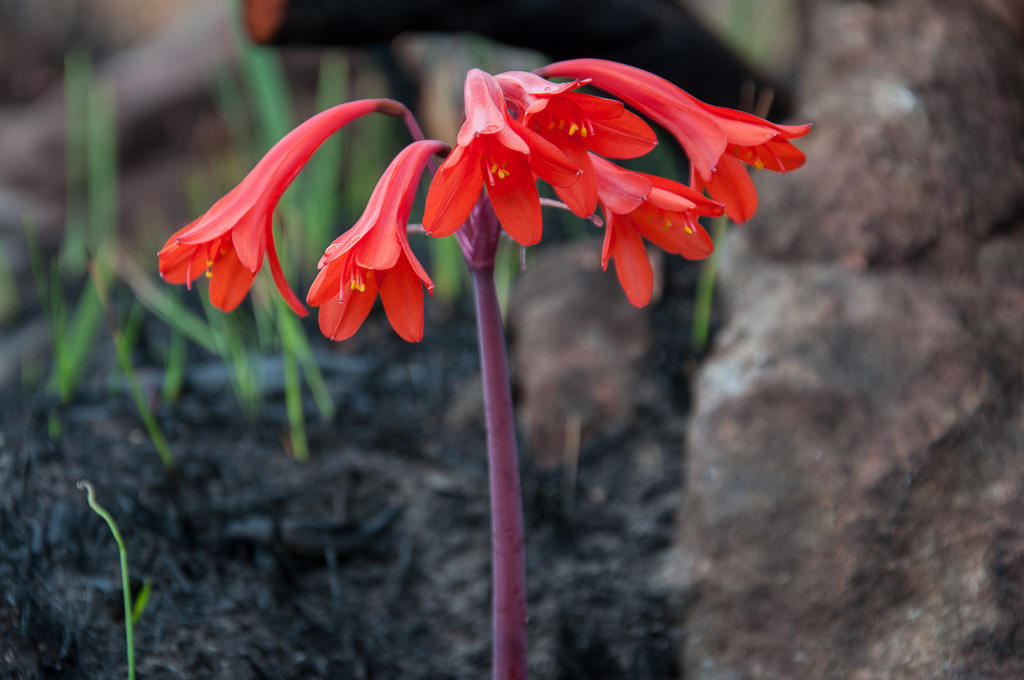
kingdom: Plantae
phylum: Tracheophyta
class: Liliopsida
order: Asparagales
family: Amaryllidaceae
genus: Cyrtanthus
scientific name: Cyrtanthus ventricosus
